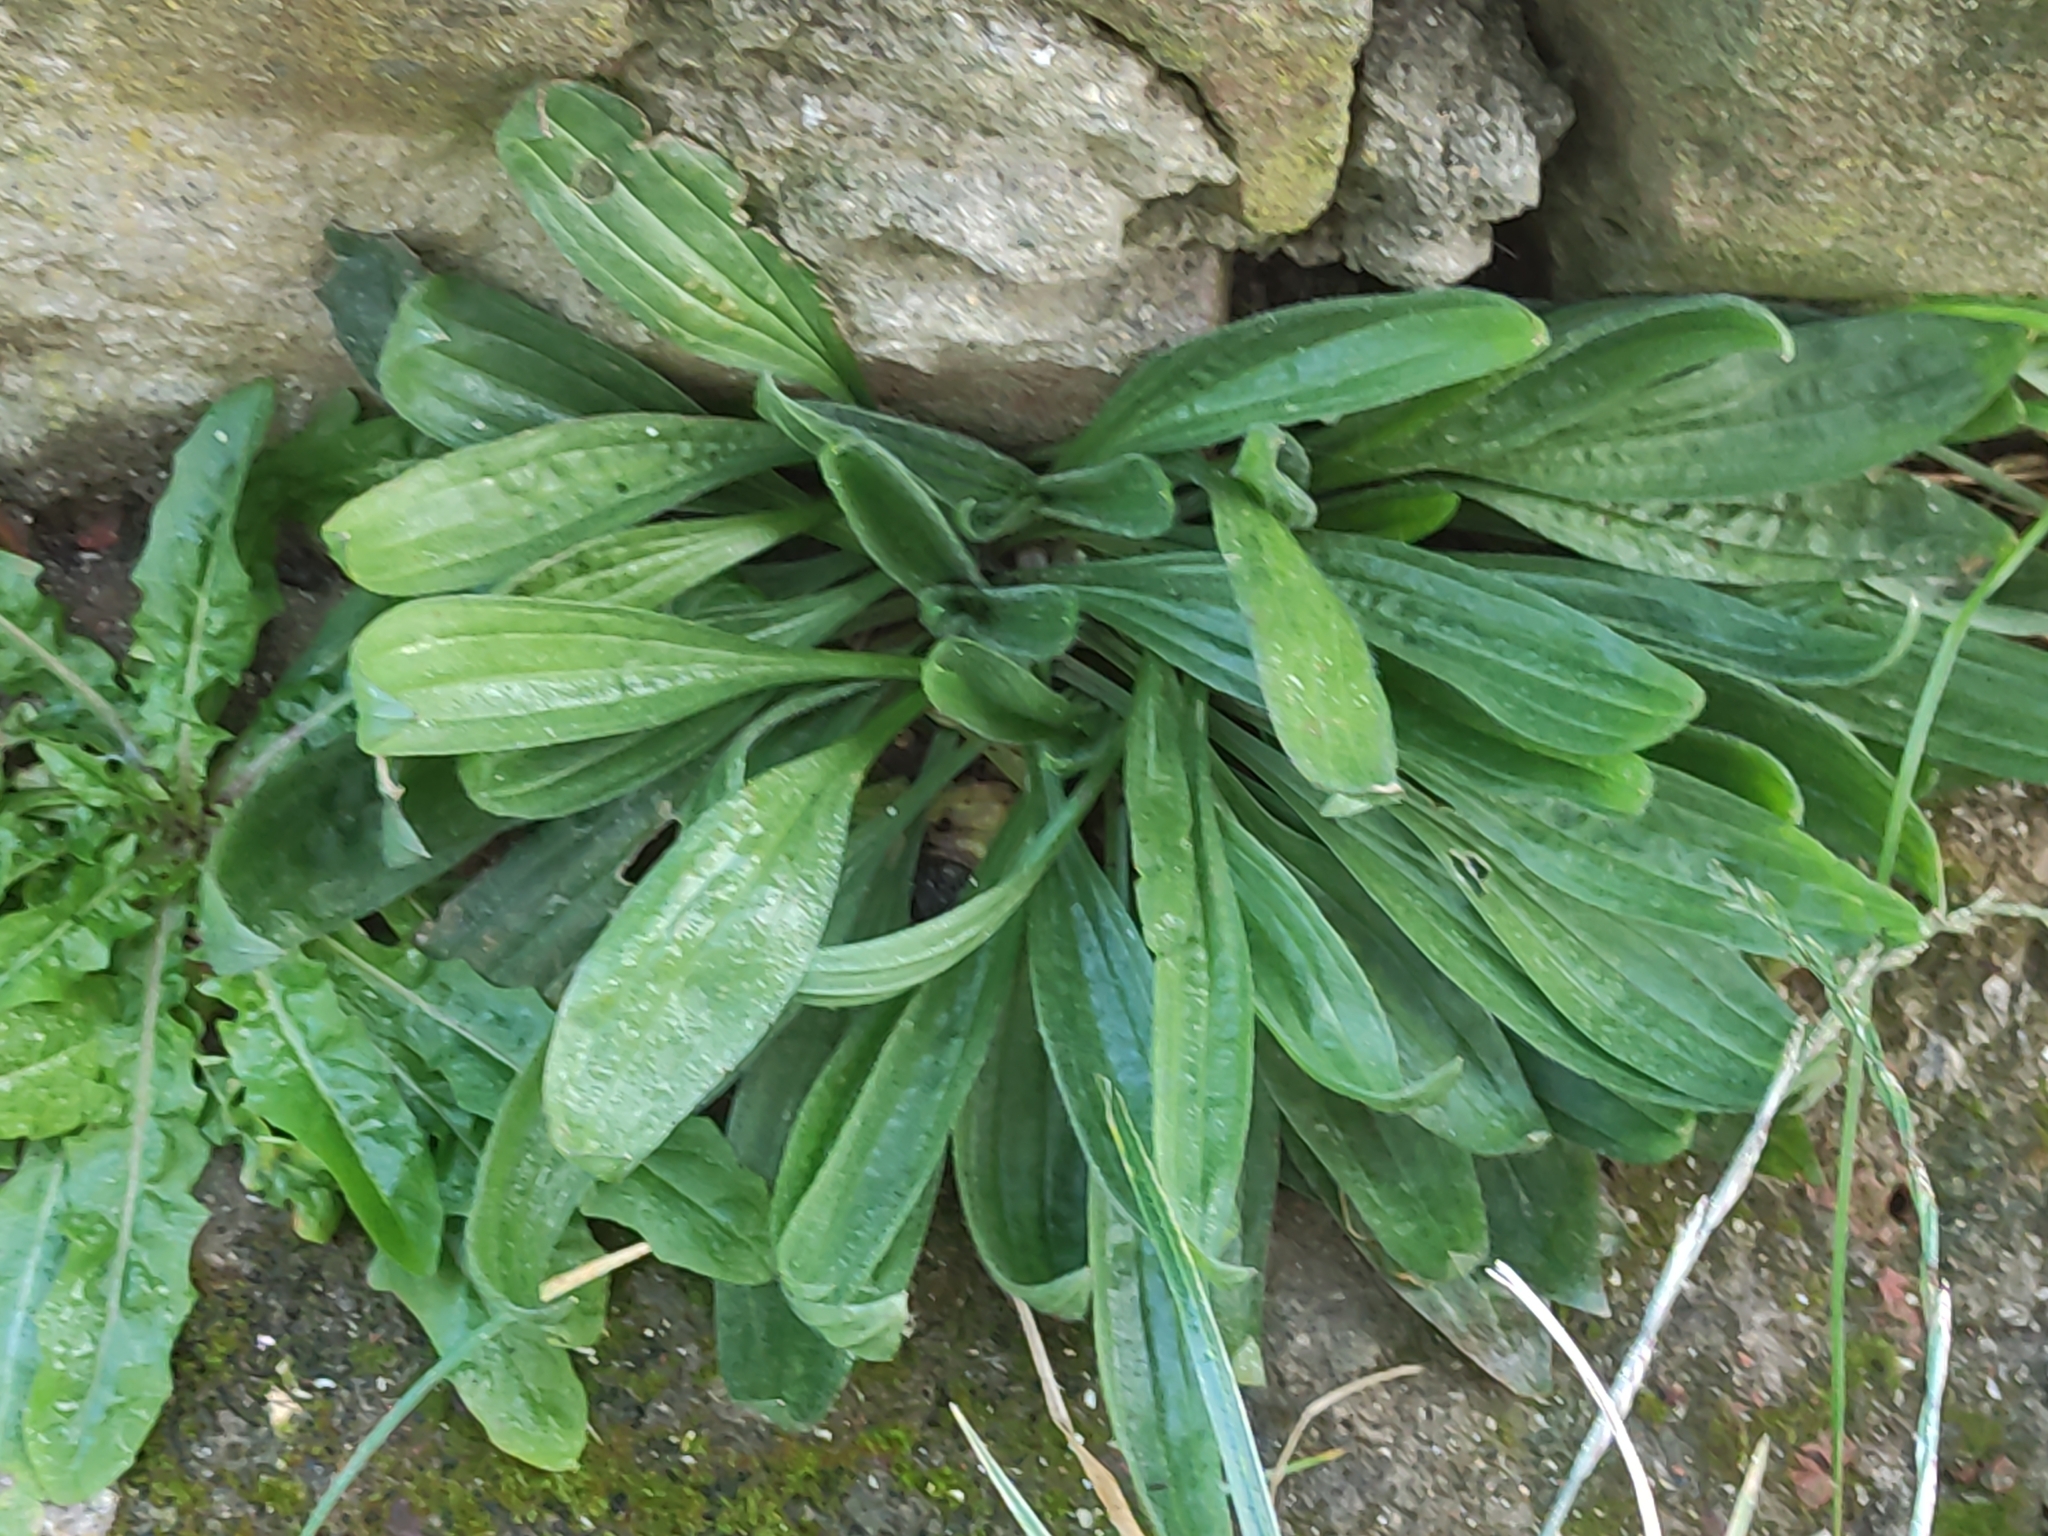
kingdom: Plantae
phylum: Tracheophyta
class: Magnoliopsida
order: Lamiales
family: Plantaginaceae
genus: Plantago
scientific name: Plantago lanceolata
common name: Ribwort plantain
